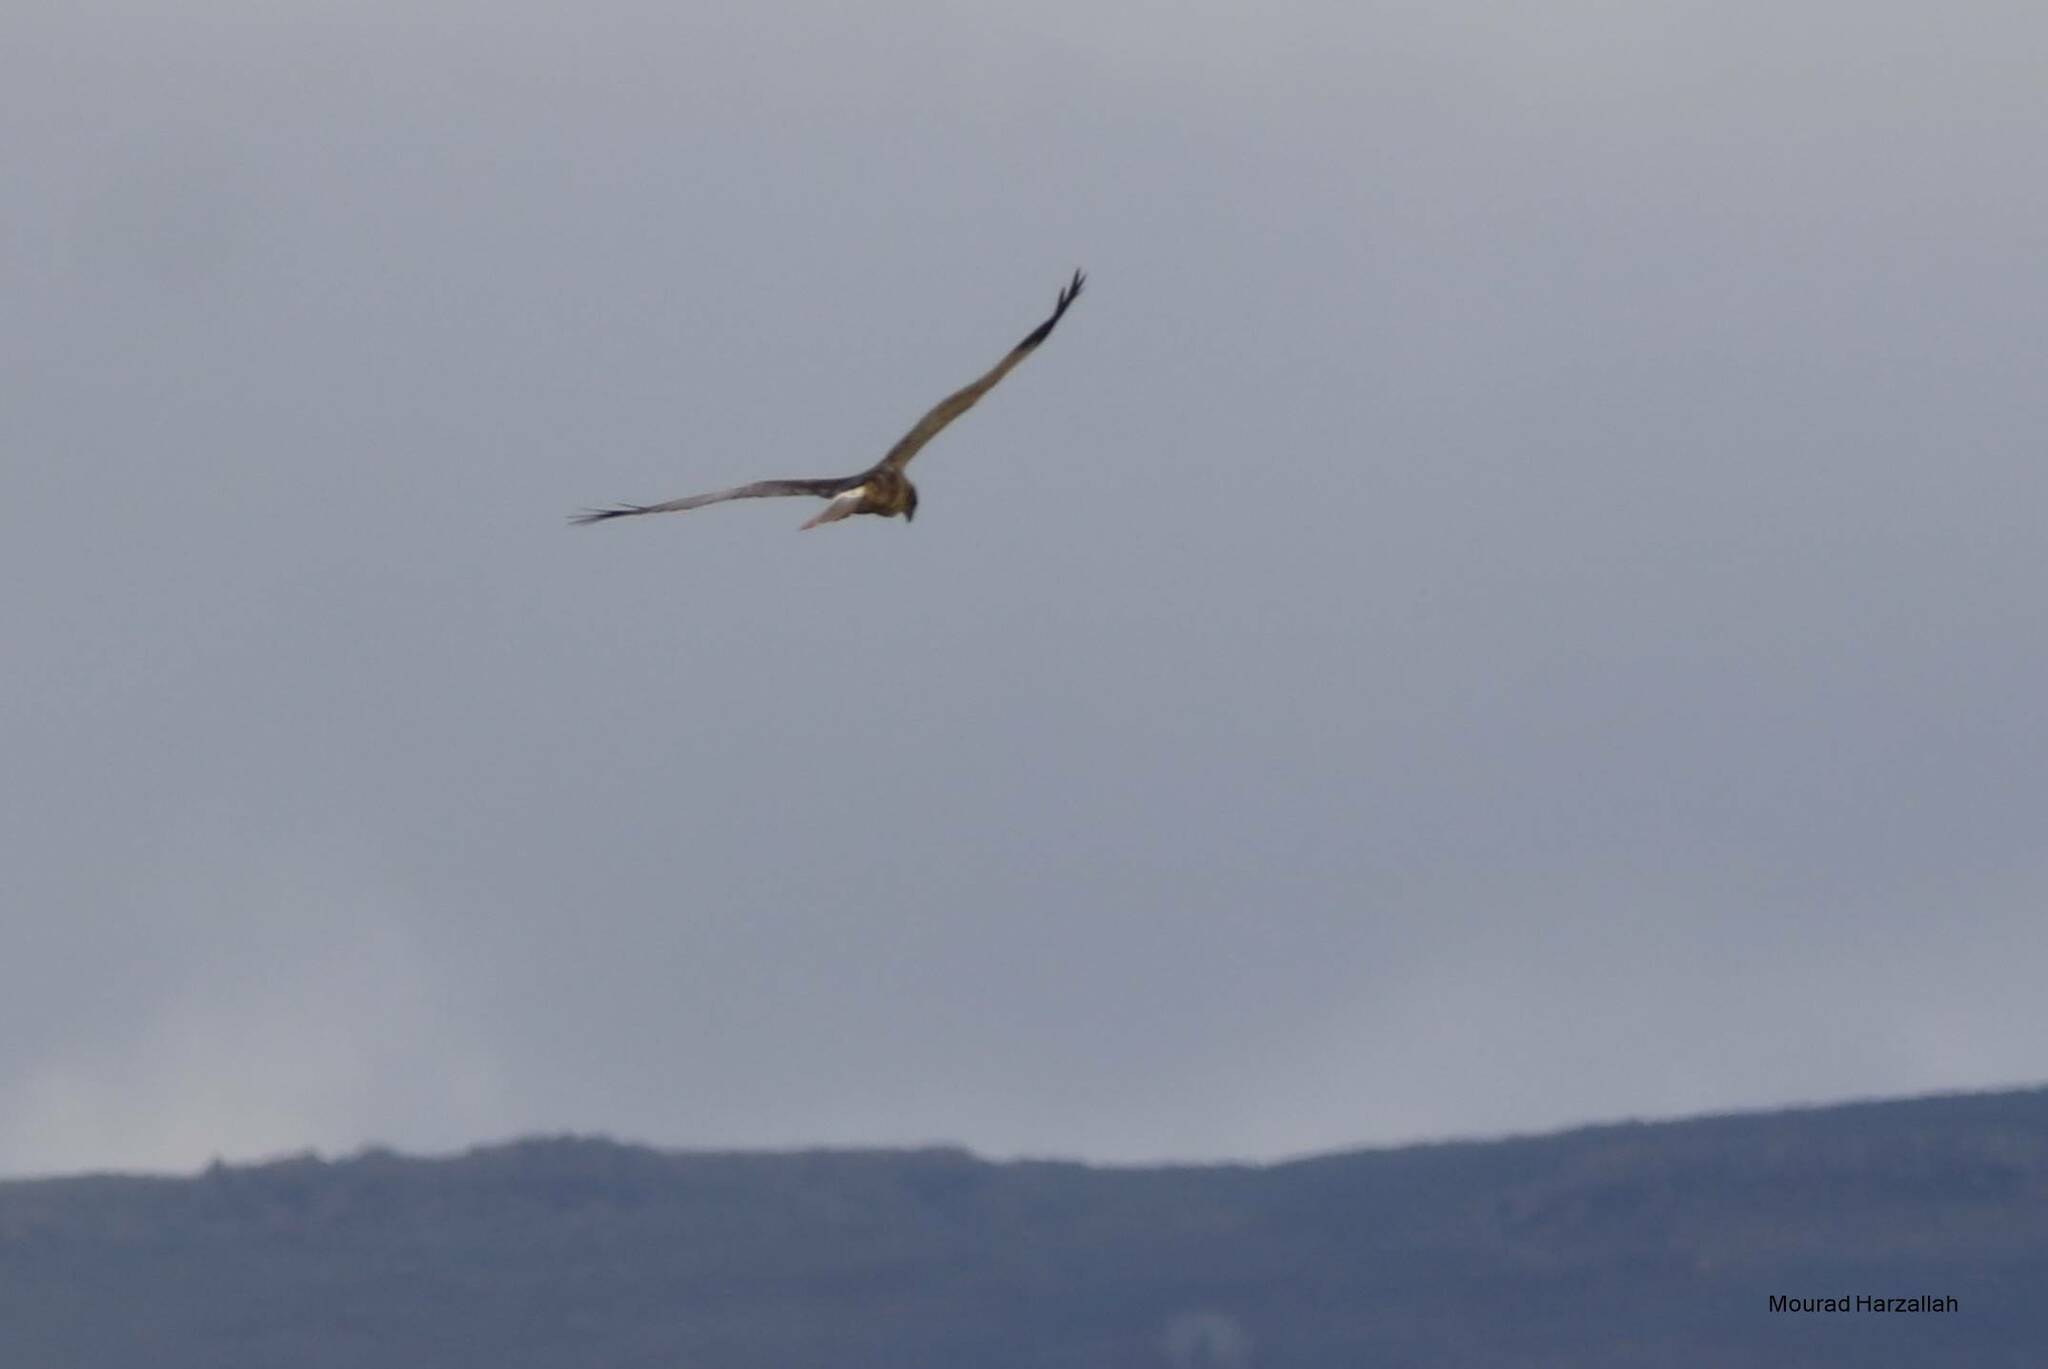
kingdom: Animalia
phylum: Chordata
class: Aves
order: Accipitriformes
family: Accipitridae
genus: Circus
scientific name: Circus aeruginosus
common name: Western marsh harrier
